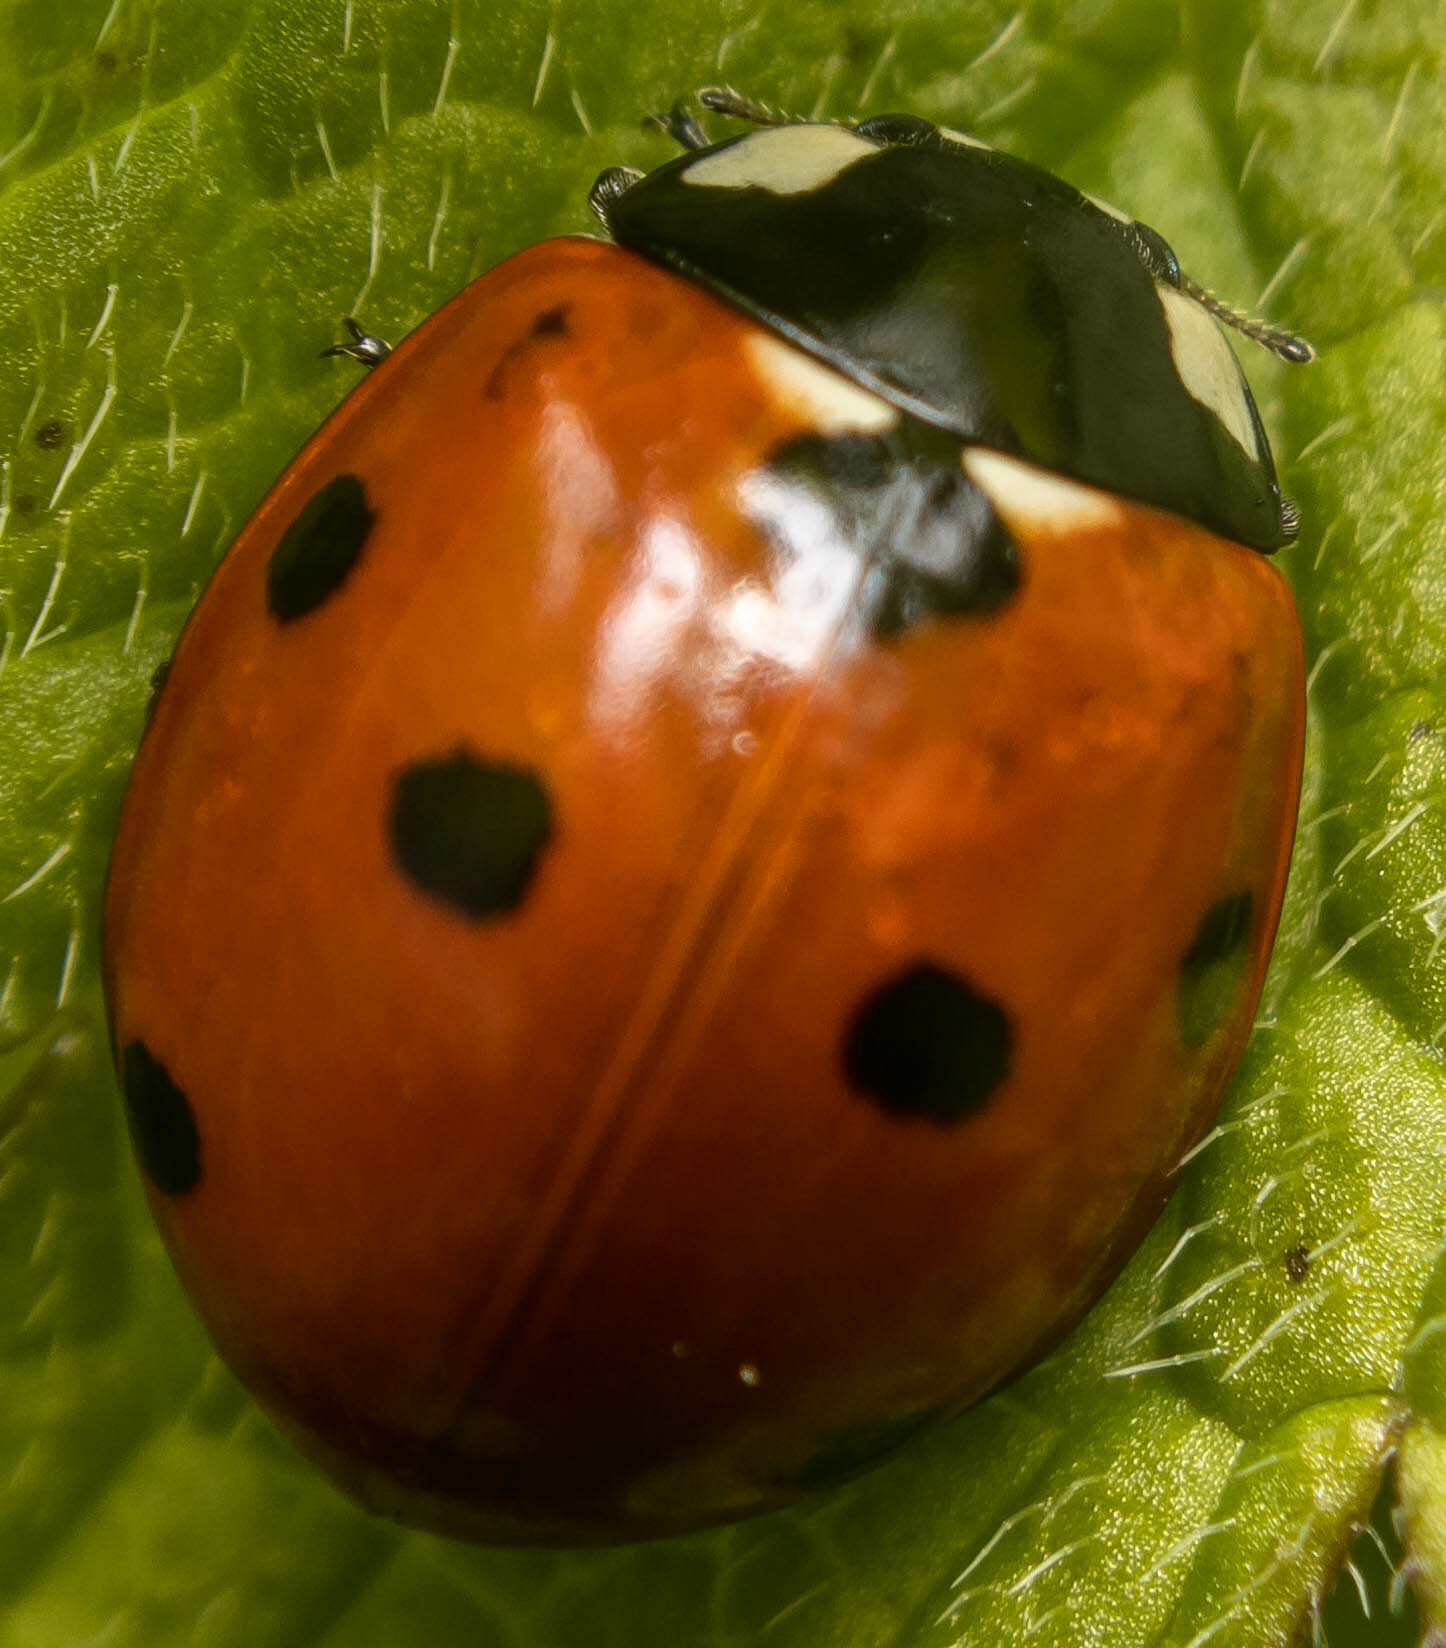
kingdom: Animalia
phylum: Arthropoda
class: Insecta
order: Coleoptera
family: Coccinellidae
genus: Coccinella
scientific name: Coccinella septempunctata
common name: Sevenspotted lady beetle
